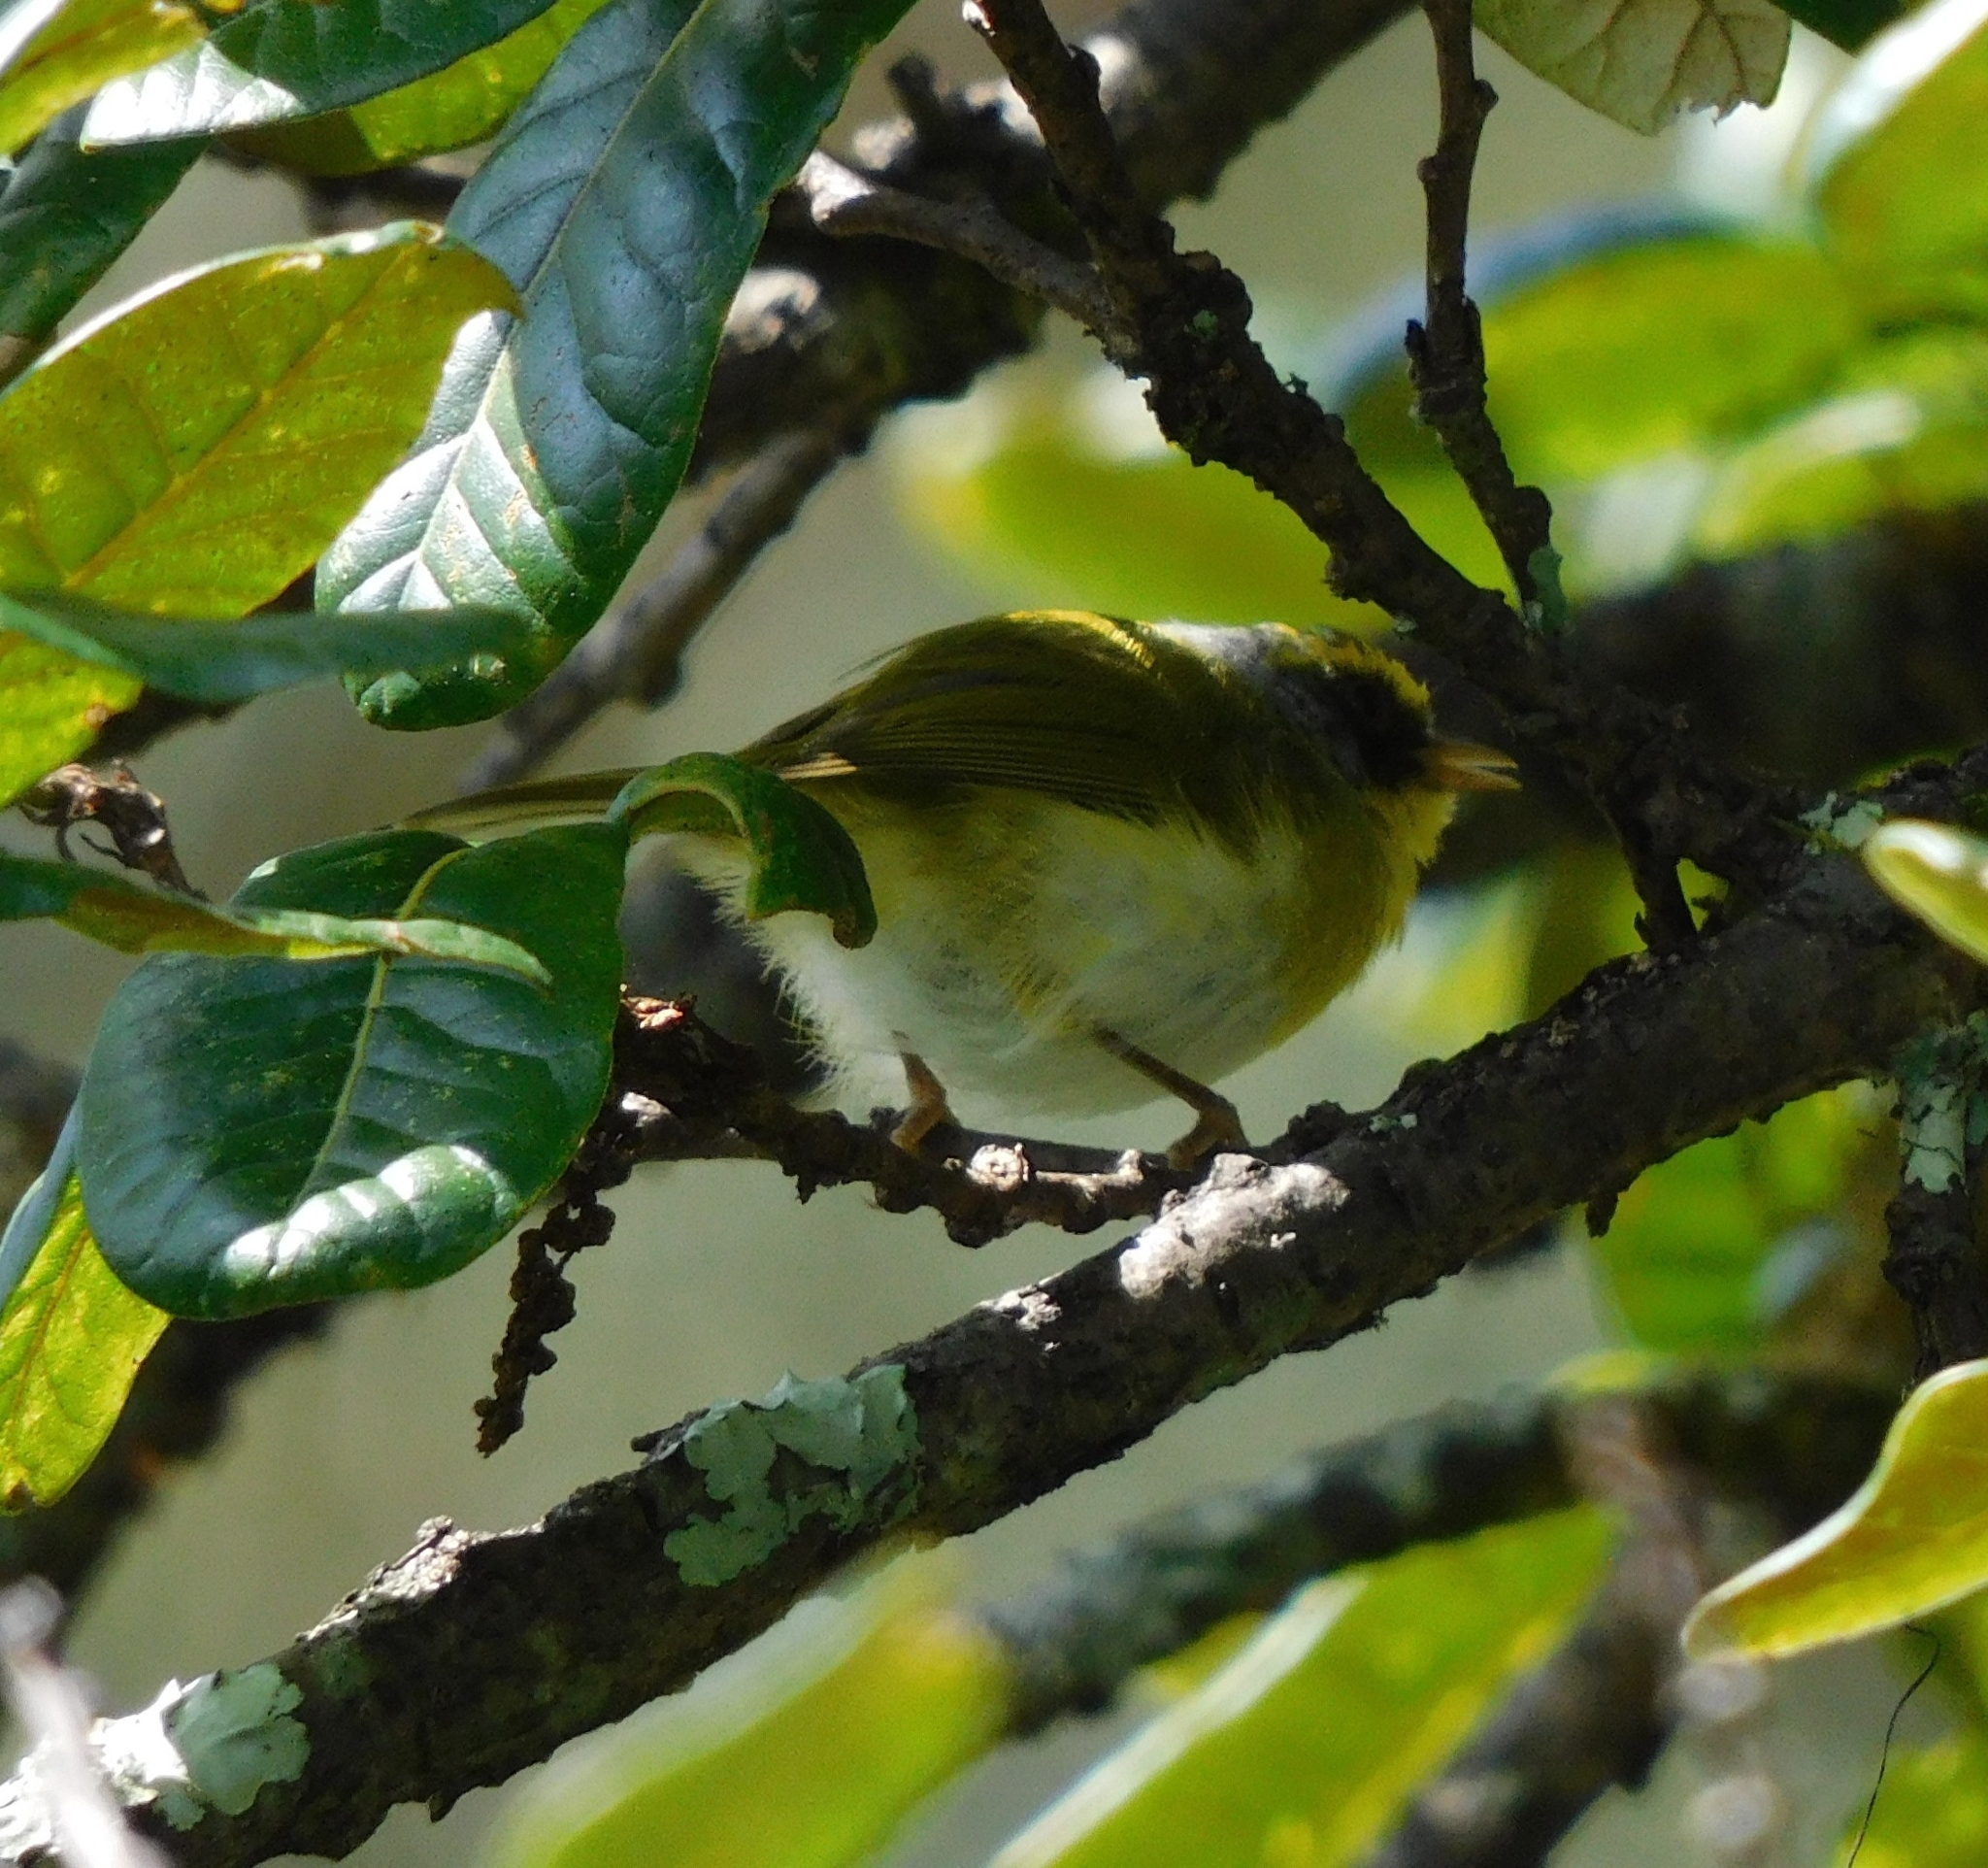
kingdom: Animalia
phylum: Chordata
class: Aves
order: Passeriformes
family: Cettiidae
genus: Abroscopus
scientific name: Abroscopus schisticeps
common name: Black-faced warbler
